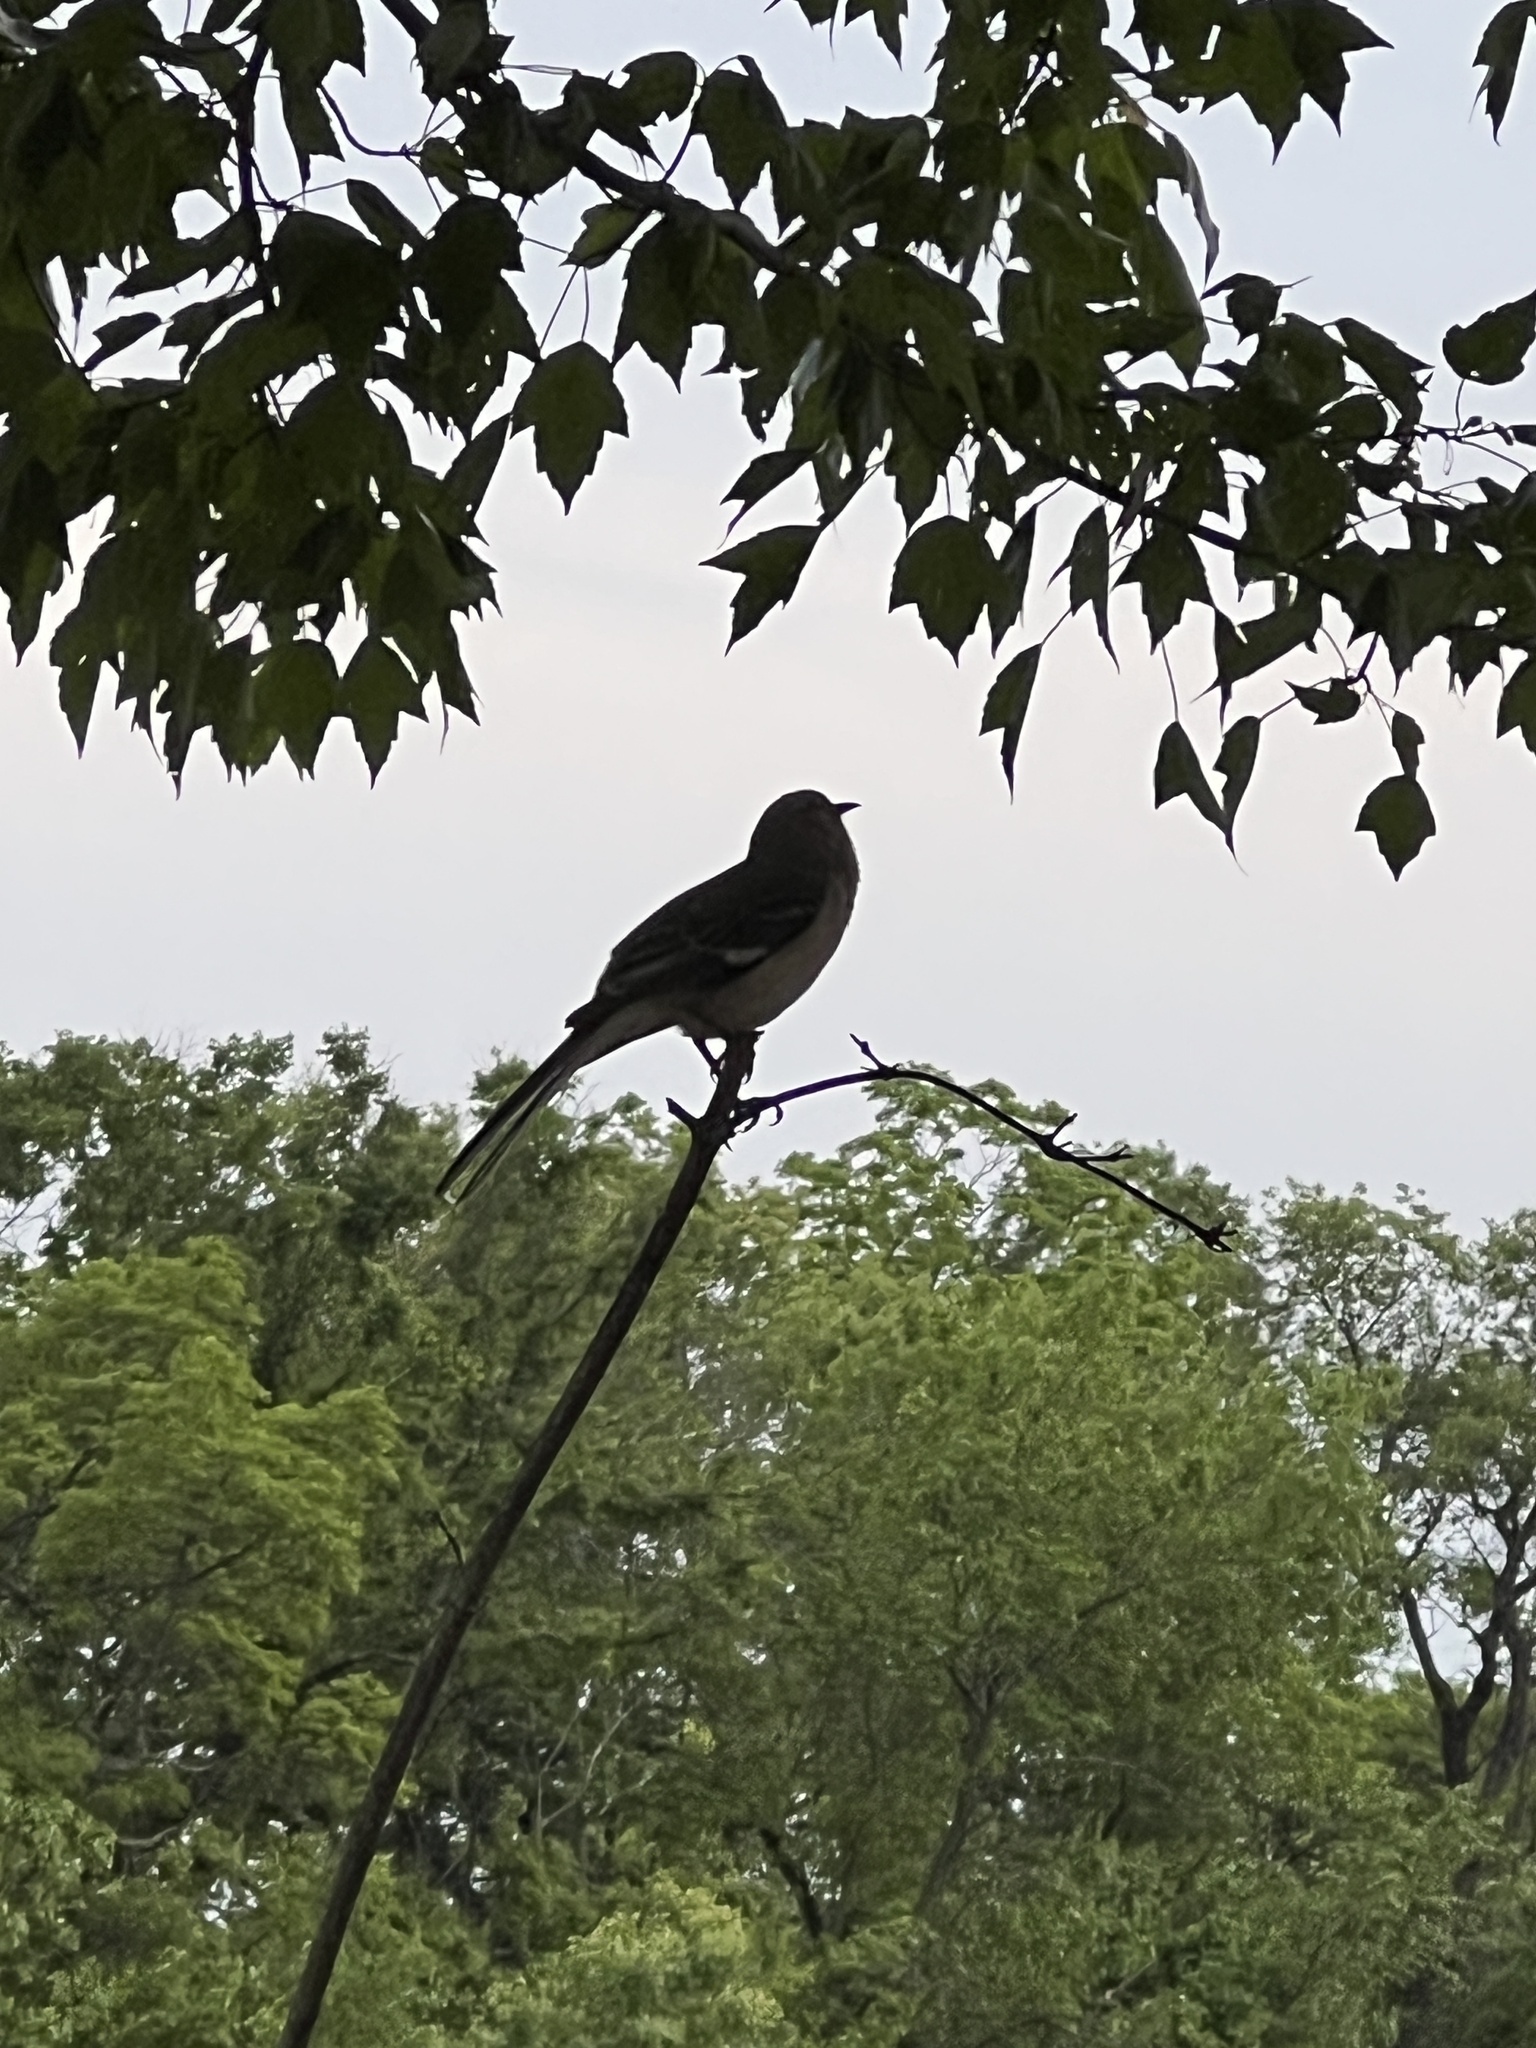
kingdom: Animalia
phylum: Chordata
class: Aves
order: Passeriformes
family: Mimidae
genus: Mimus
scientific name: Mimus polyglottos
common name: Northern mockingbird
